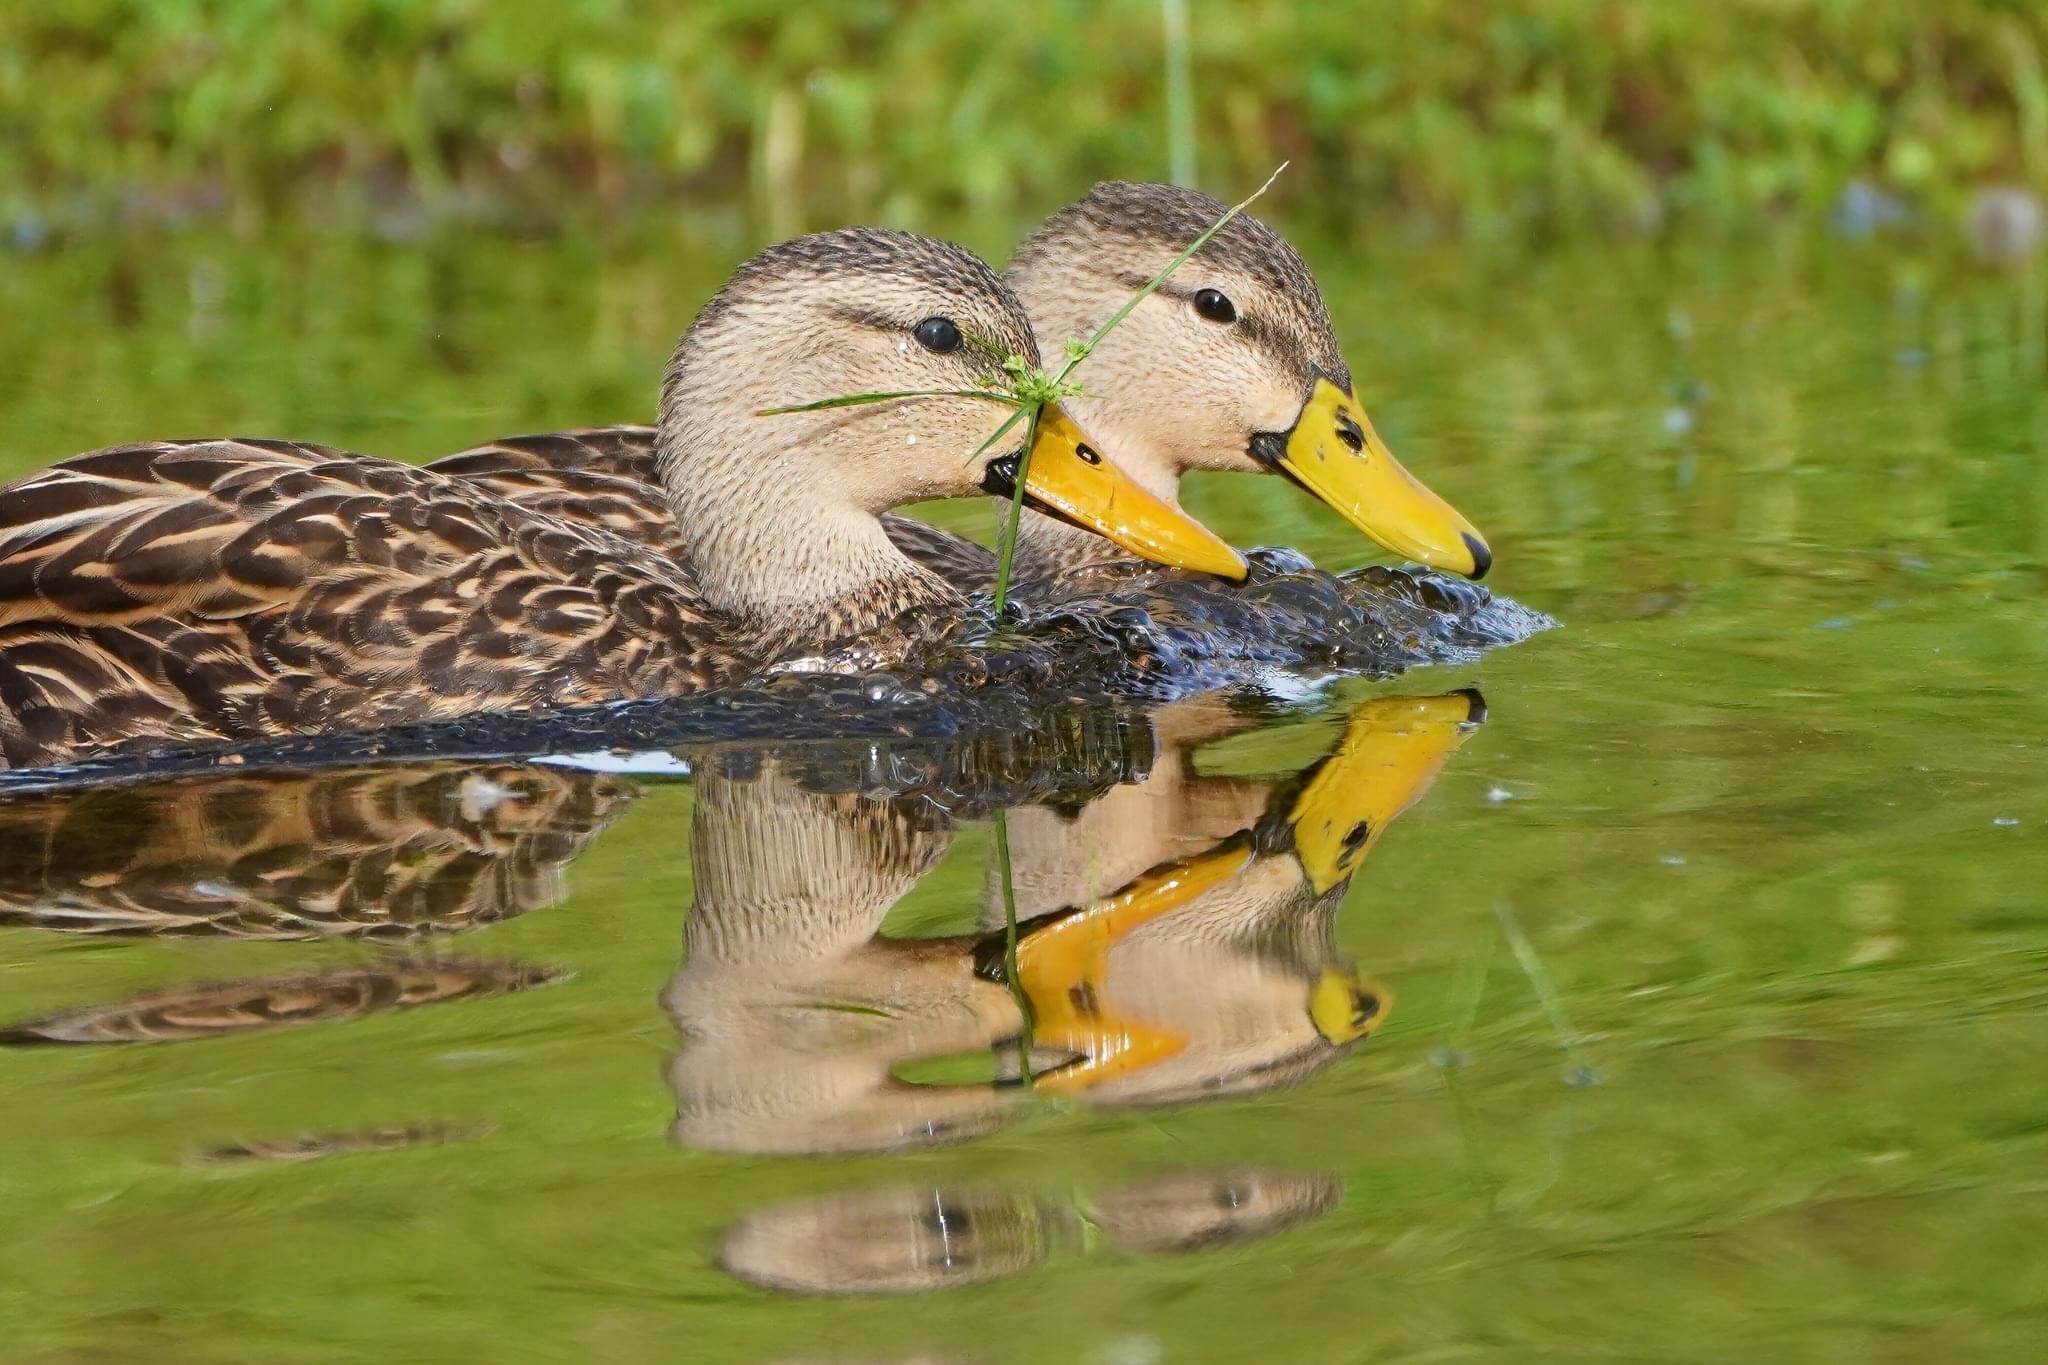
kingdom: Animalia
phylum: Chordata
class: Aves
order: Anseriformes
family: Anatidae
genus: Anas
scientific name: Anas fulvigula
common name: Mottled duck
